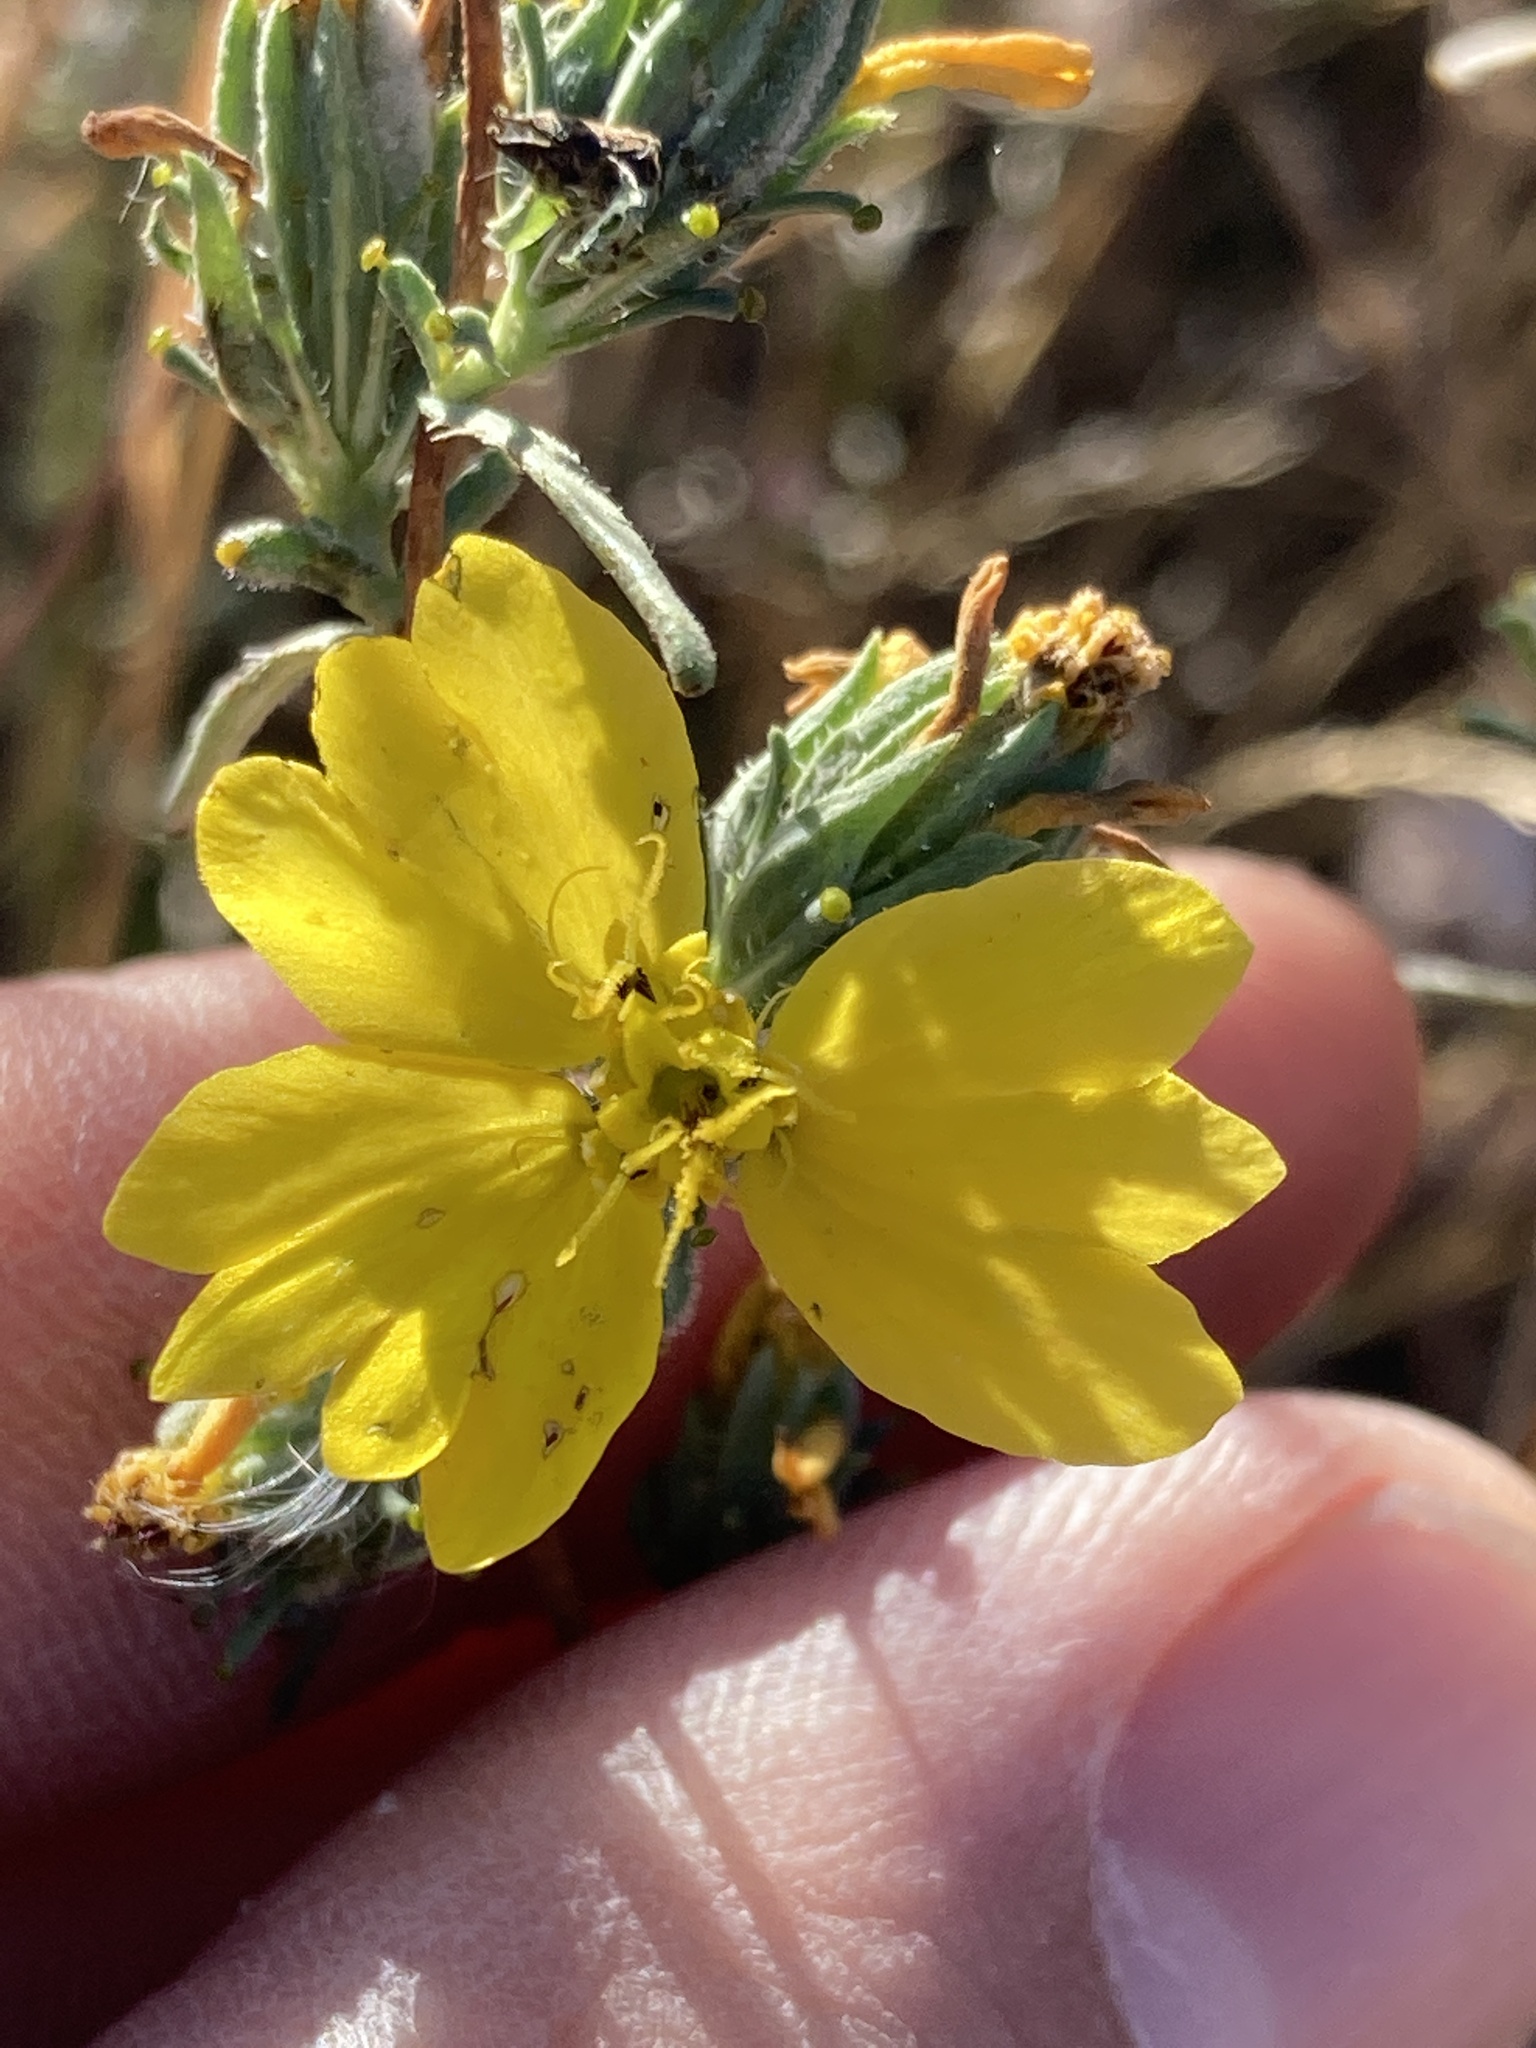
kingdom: Plantae
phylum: Tracheophyta
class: Magnoliopsida
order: Asterales
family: Asteraceae
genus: Calycadenia
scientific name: Calycadenia truncata
